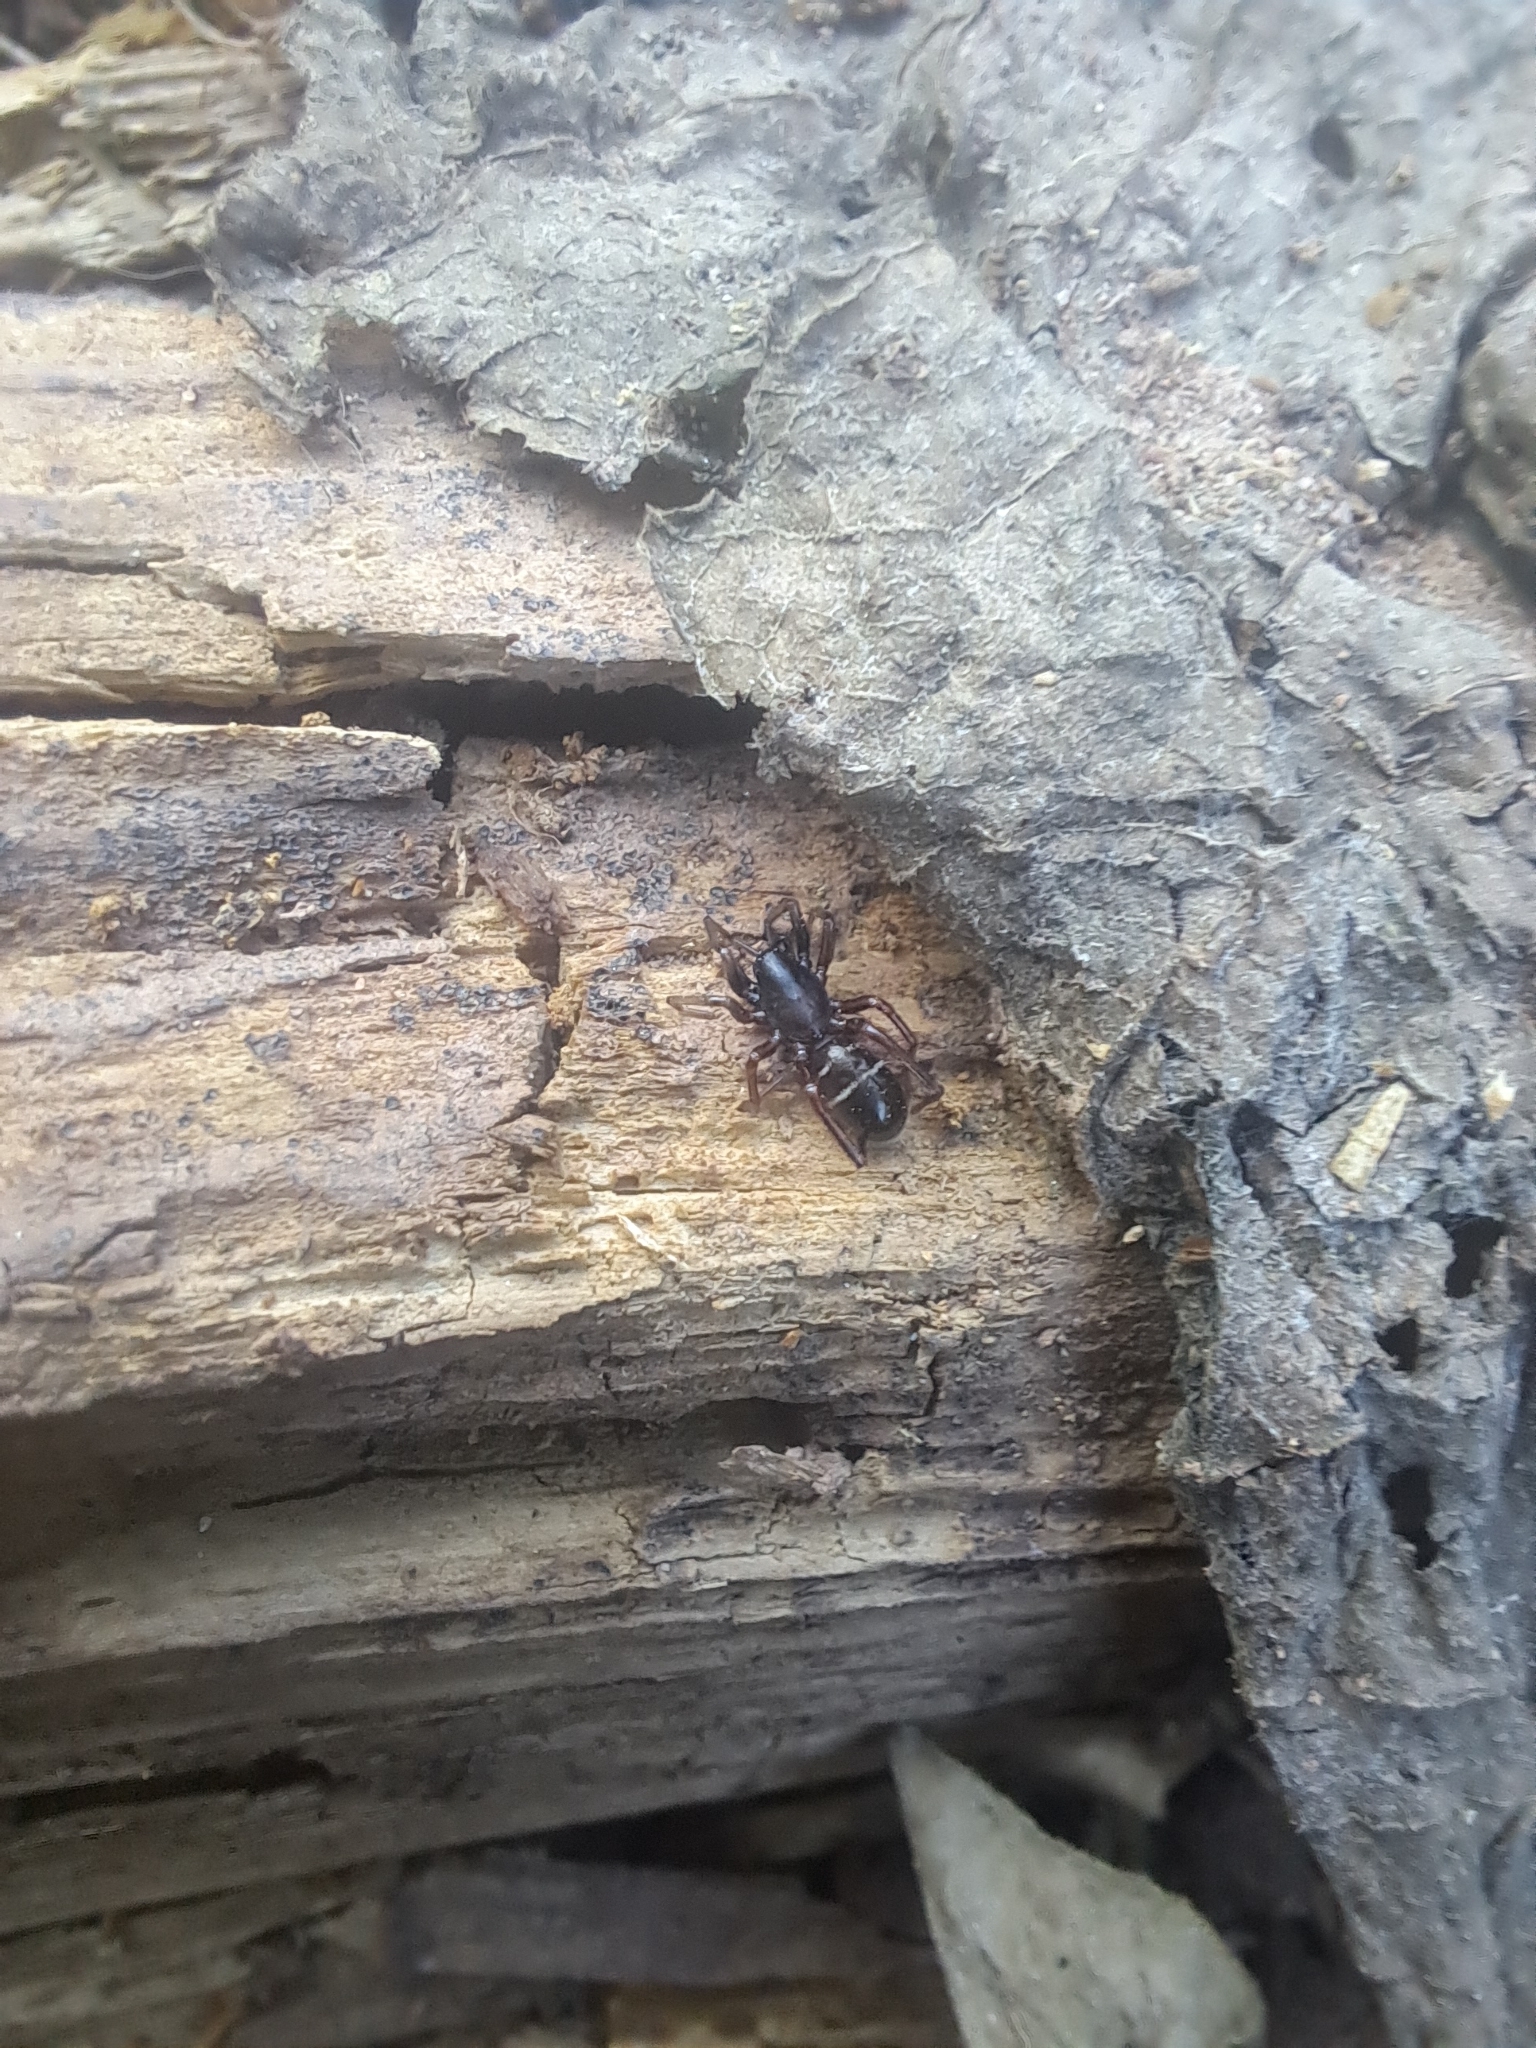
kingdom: Animalia
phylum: Arthropoda
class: Arachnida
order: Araneae
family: Corinnidae
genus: Castianeira
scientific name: Castianeira cingulata
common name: Two-banded ant-mimic sac spider
